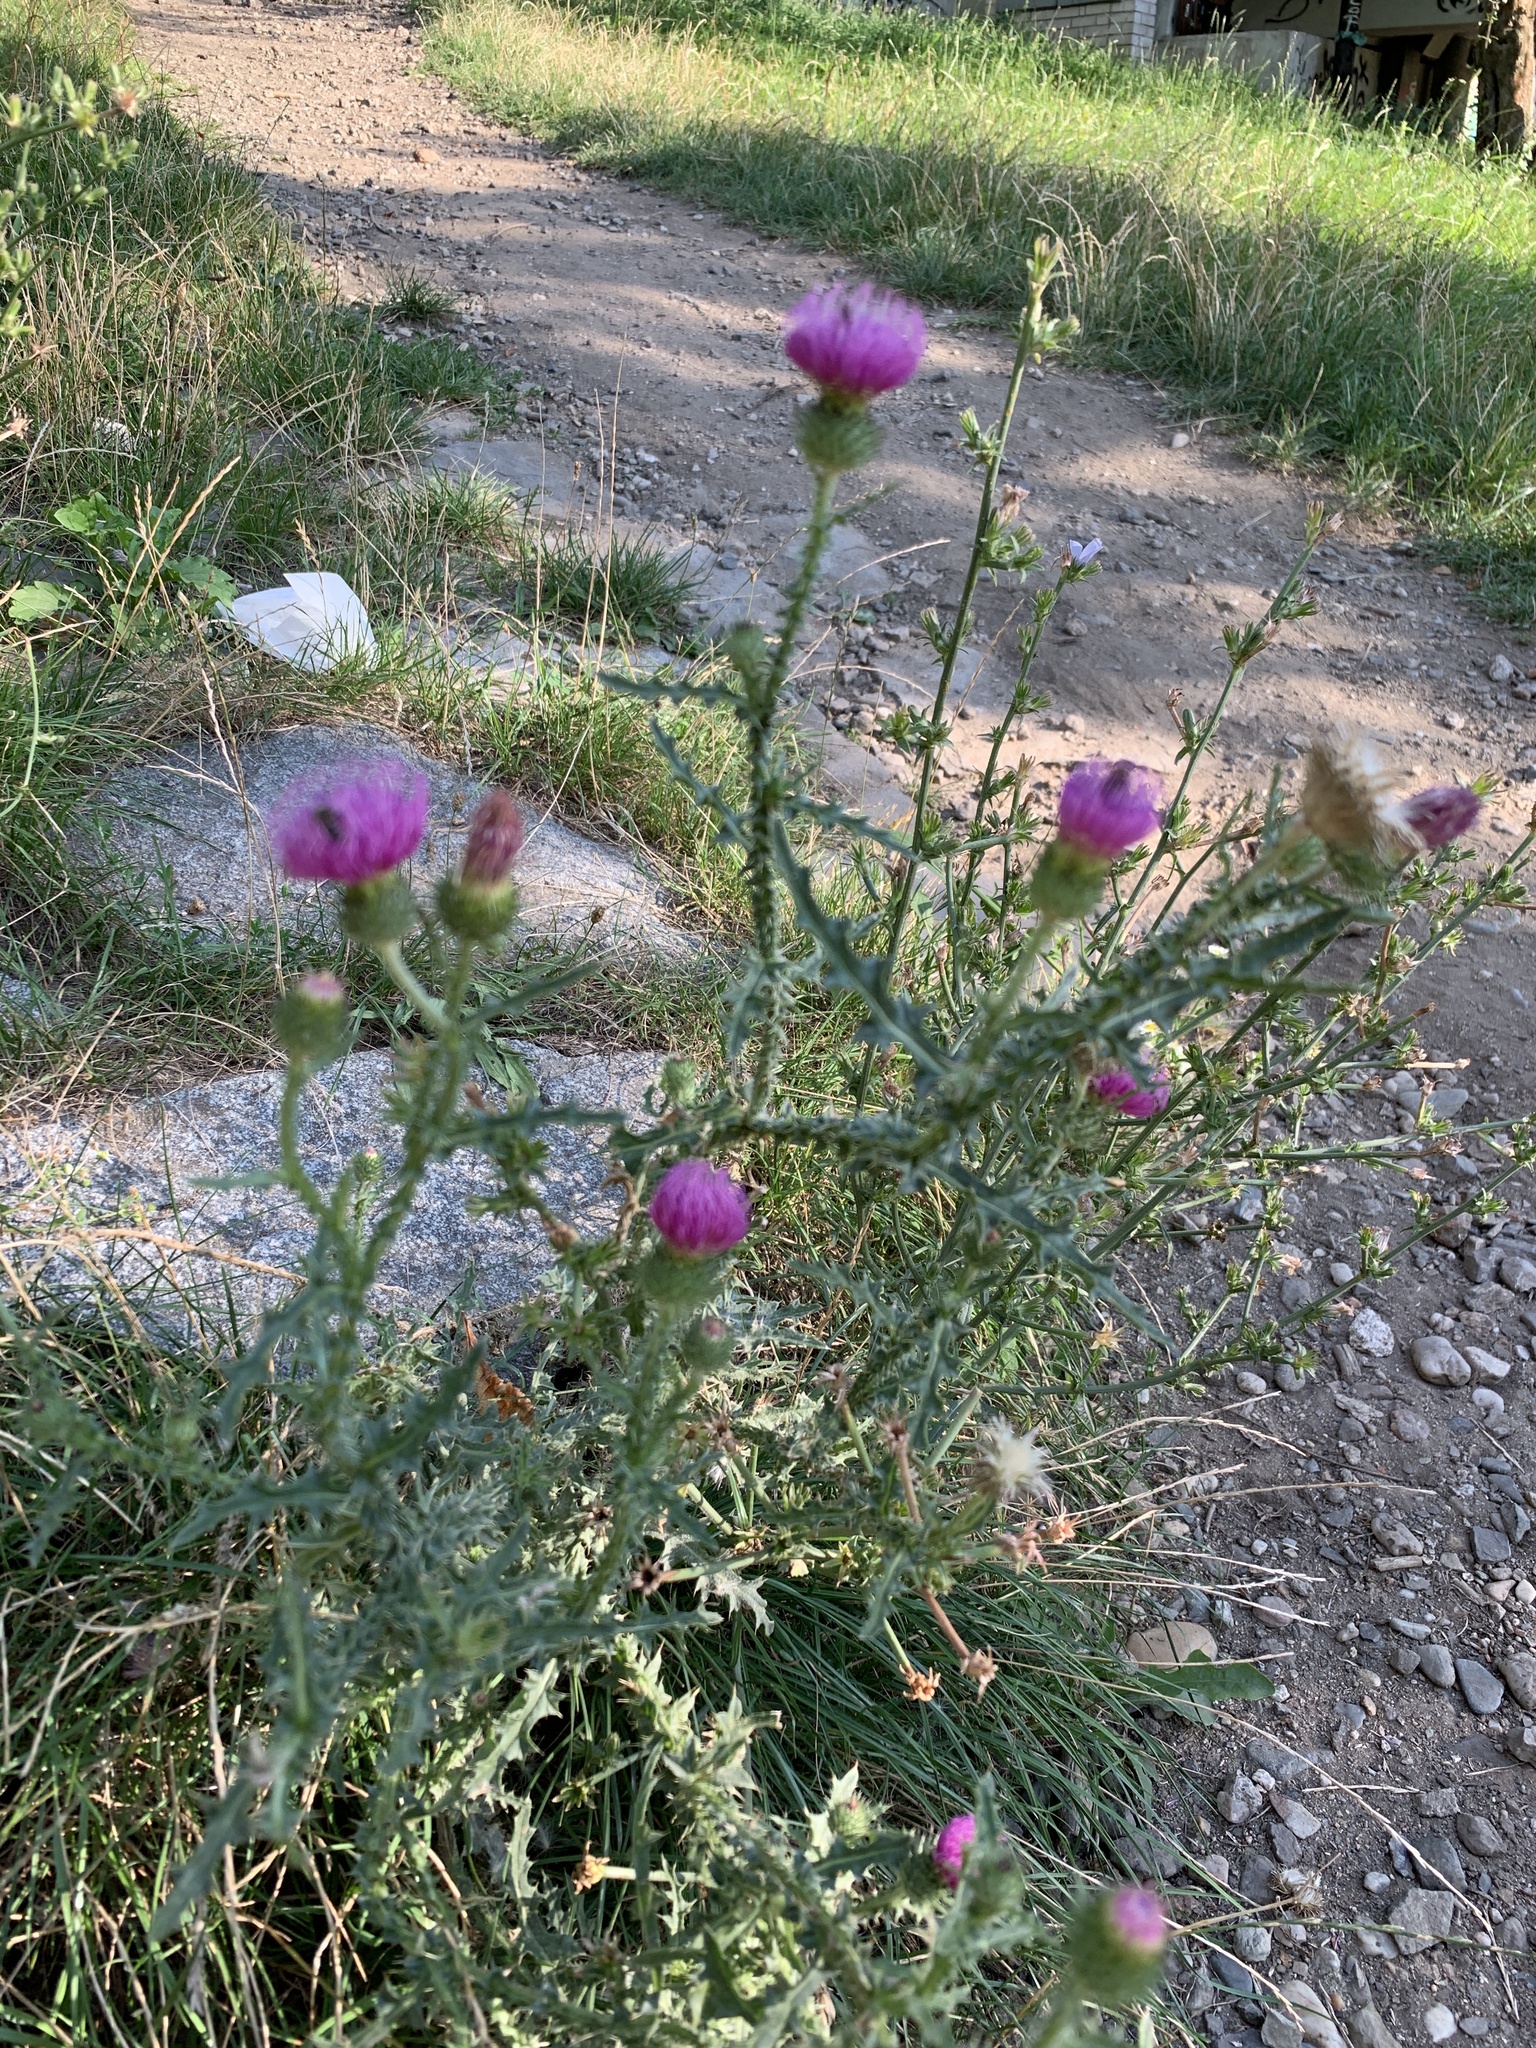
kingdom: Plantae
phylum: Tracheophyta
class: Magnoliopsida
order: Asterales
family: Asteraceae
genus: Carduus
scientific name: Carduus acanthoides
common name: Plumeless thistle
